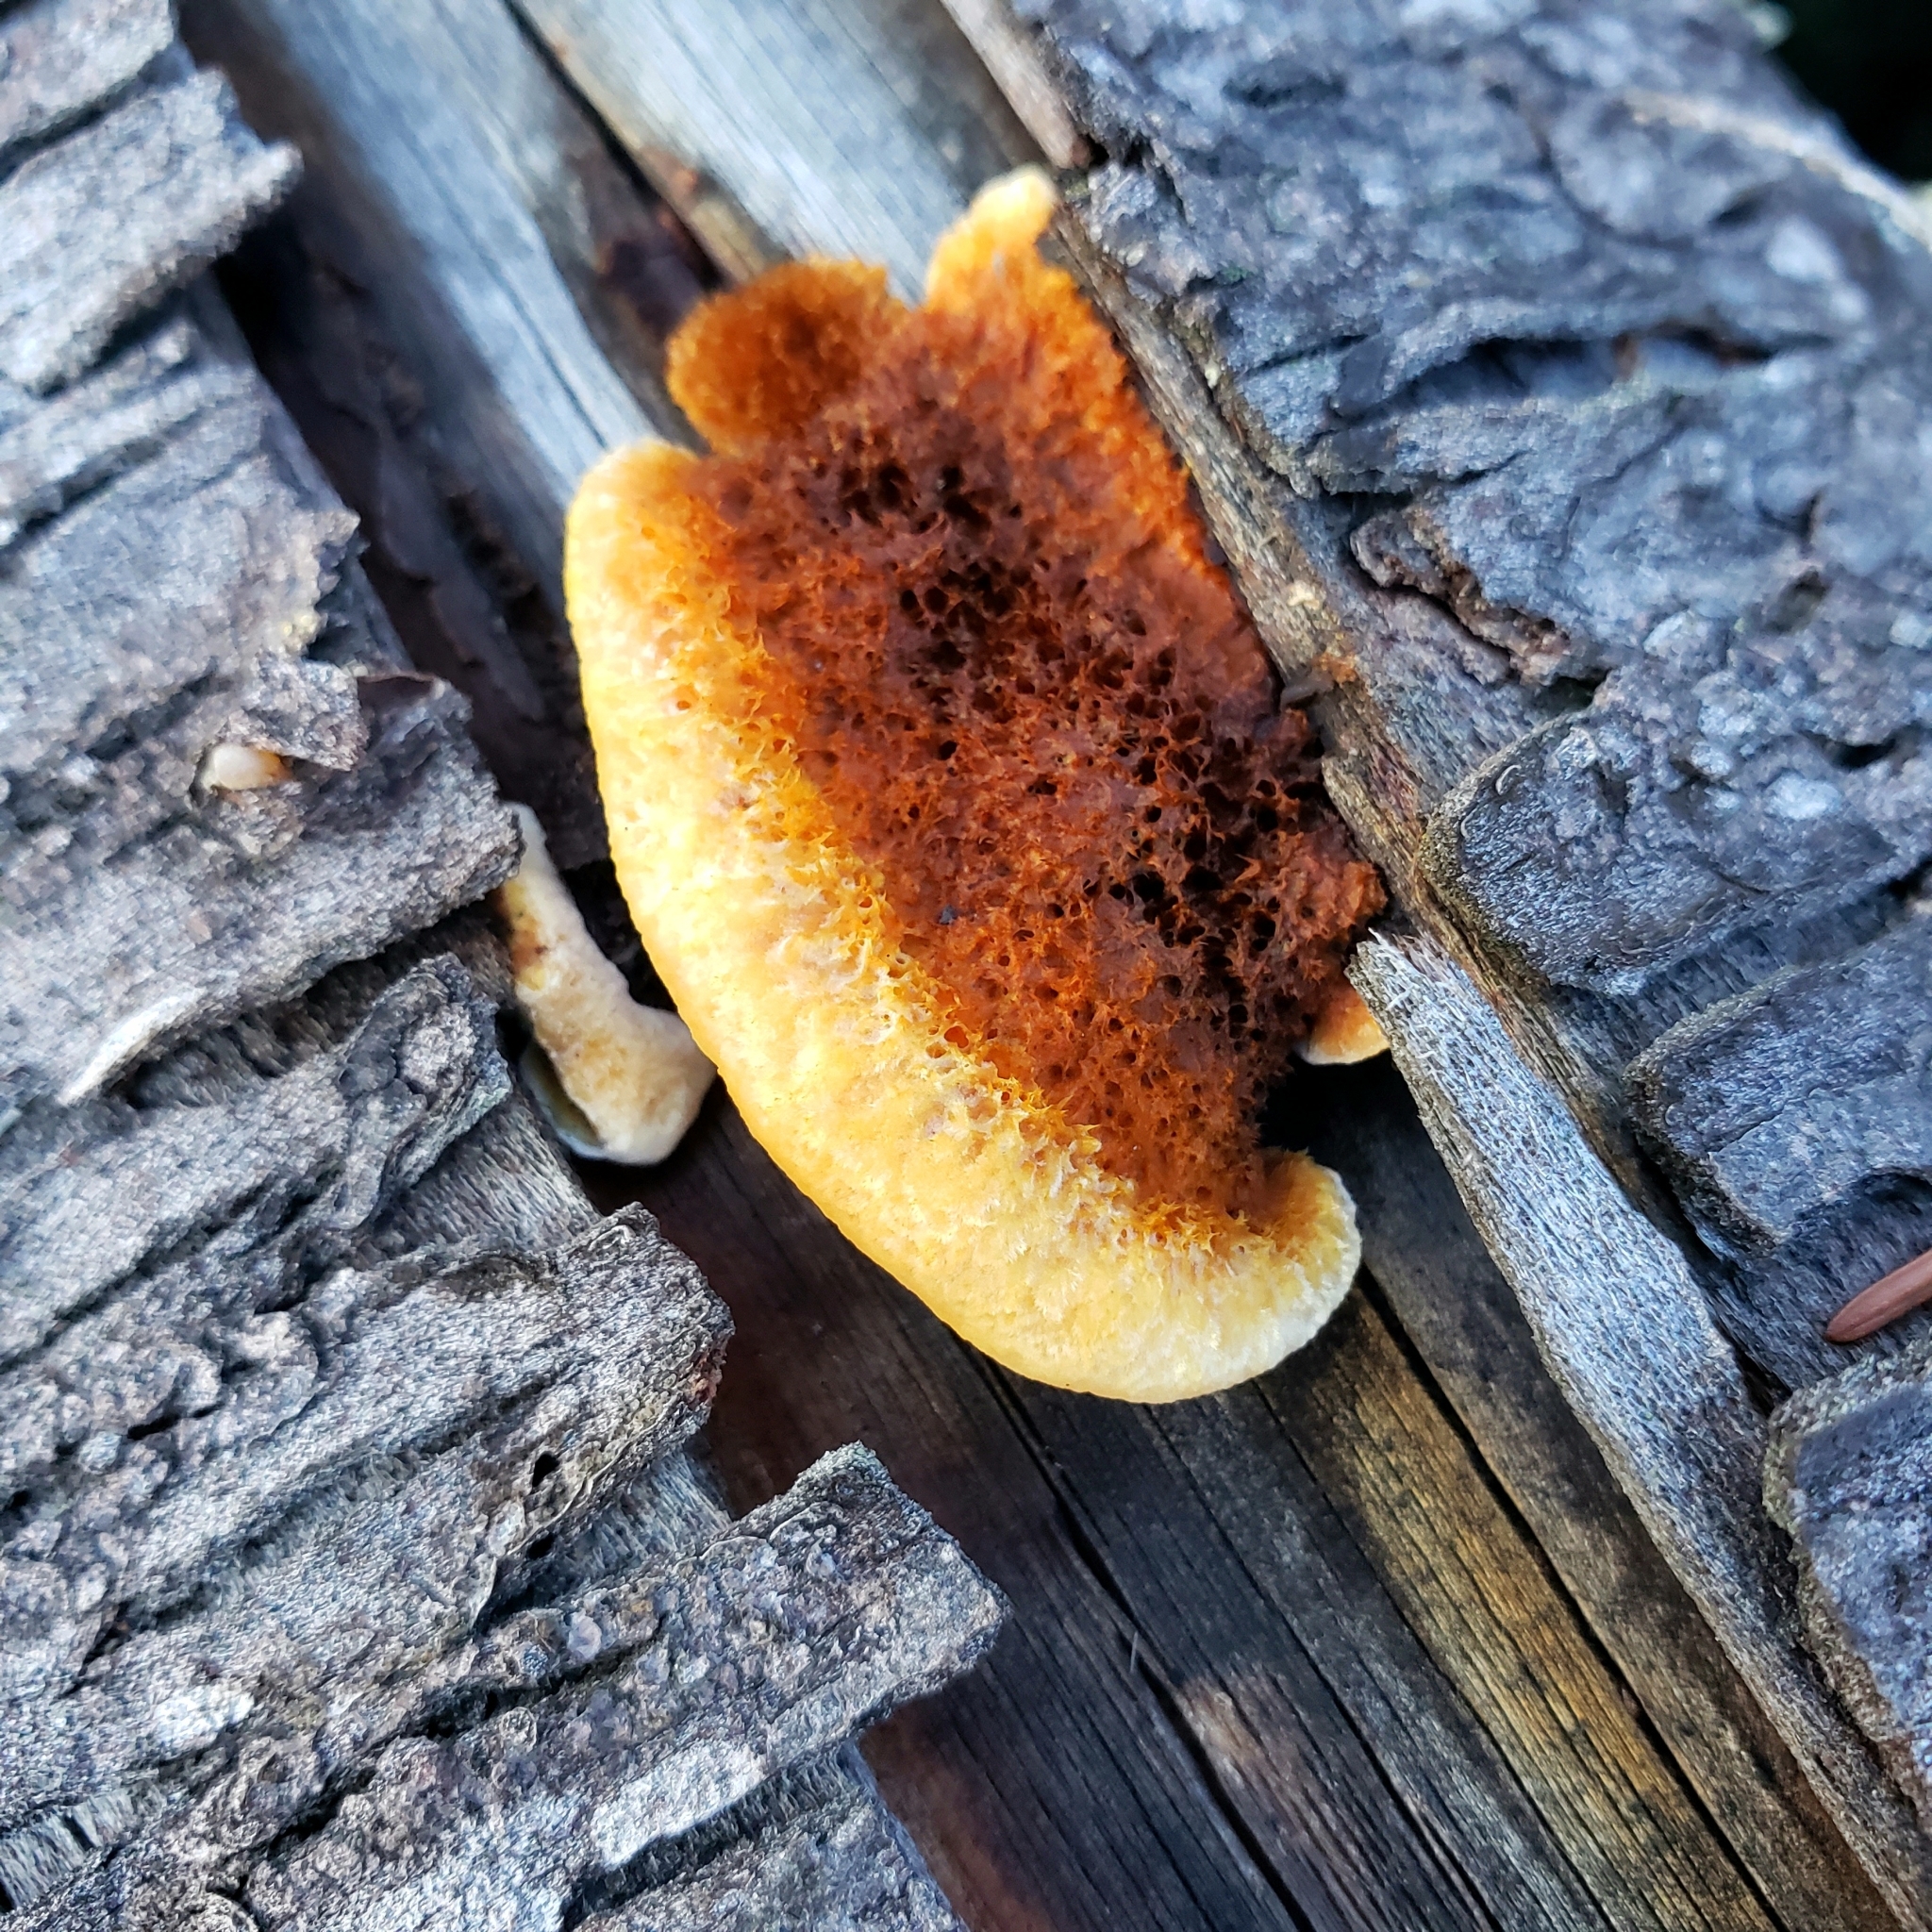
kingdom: Fungi
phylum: Basidiomycota
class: Agaricomycetes
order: Gloeophyllales
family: Gloeophyllaceae
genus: Gloeophyllum
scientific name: Gloeophyllum sepiarium
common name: Conifer mazegill
